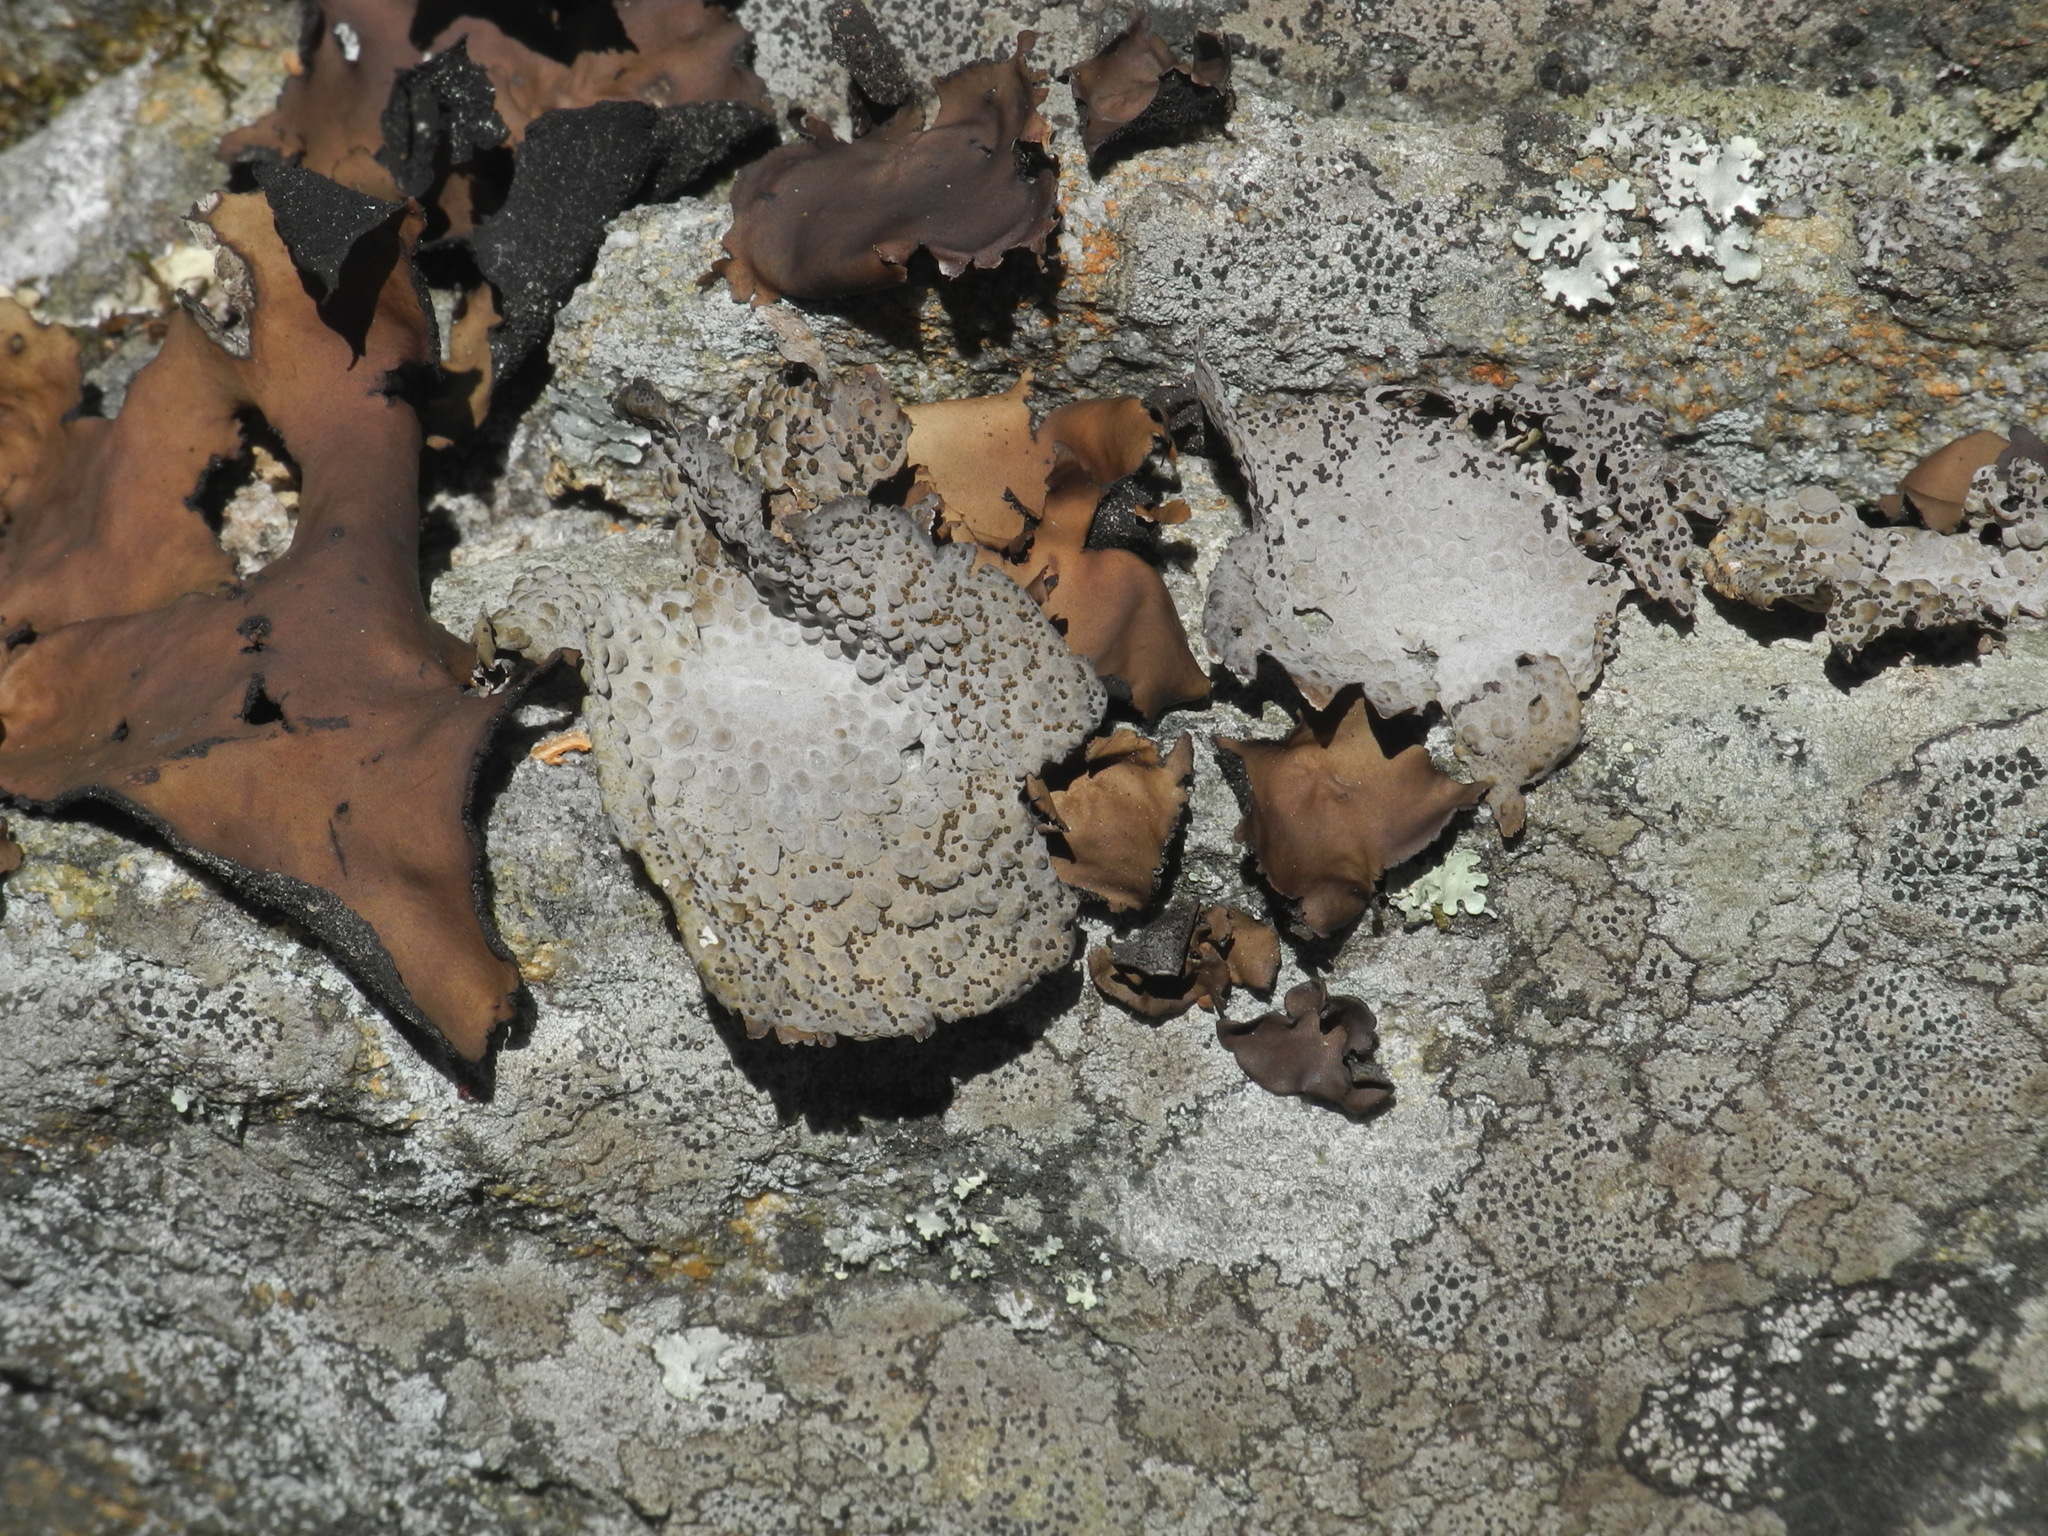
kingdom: Fungi
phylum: Ascomycota
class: Lecanoromycetes
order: Umbilicariales
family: Umbilicariaceae
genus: Lasallia
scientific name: Lasallia papulosa
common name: Common toadskin lichen
